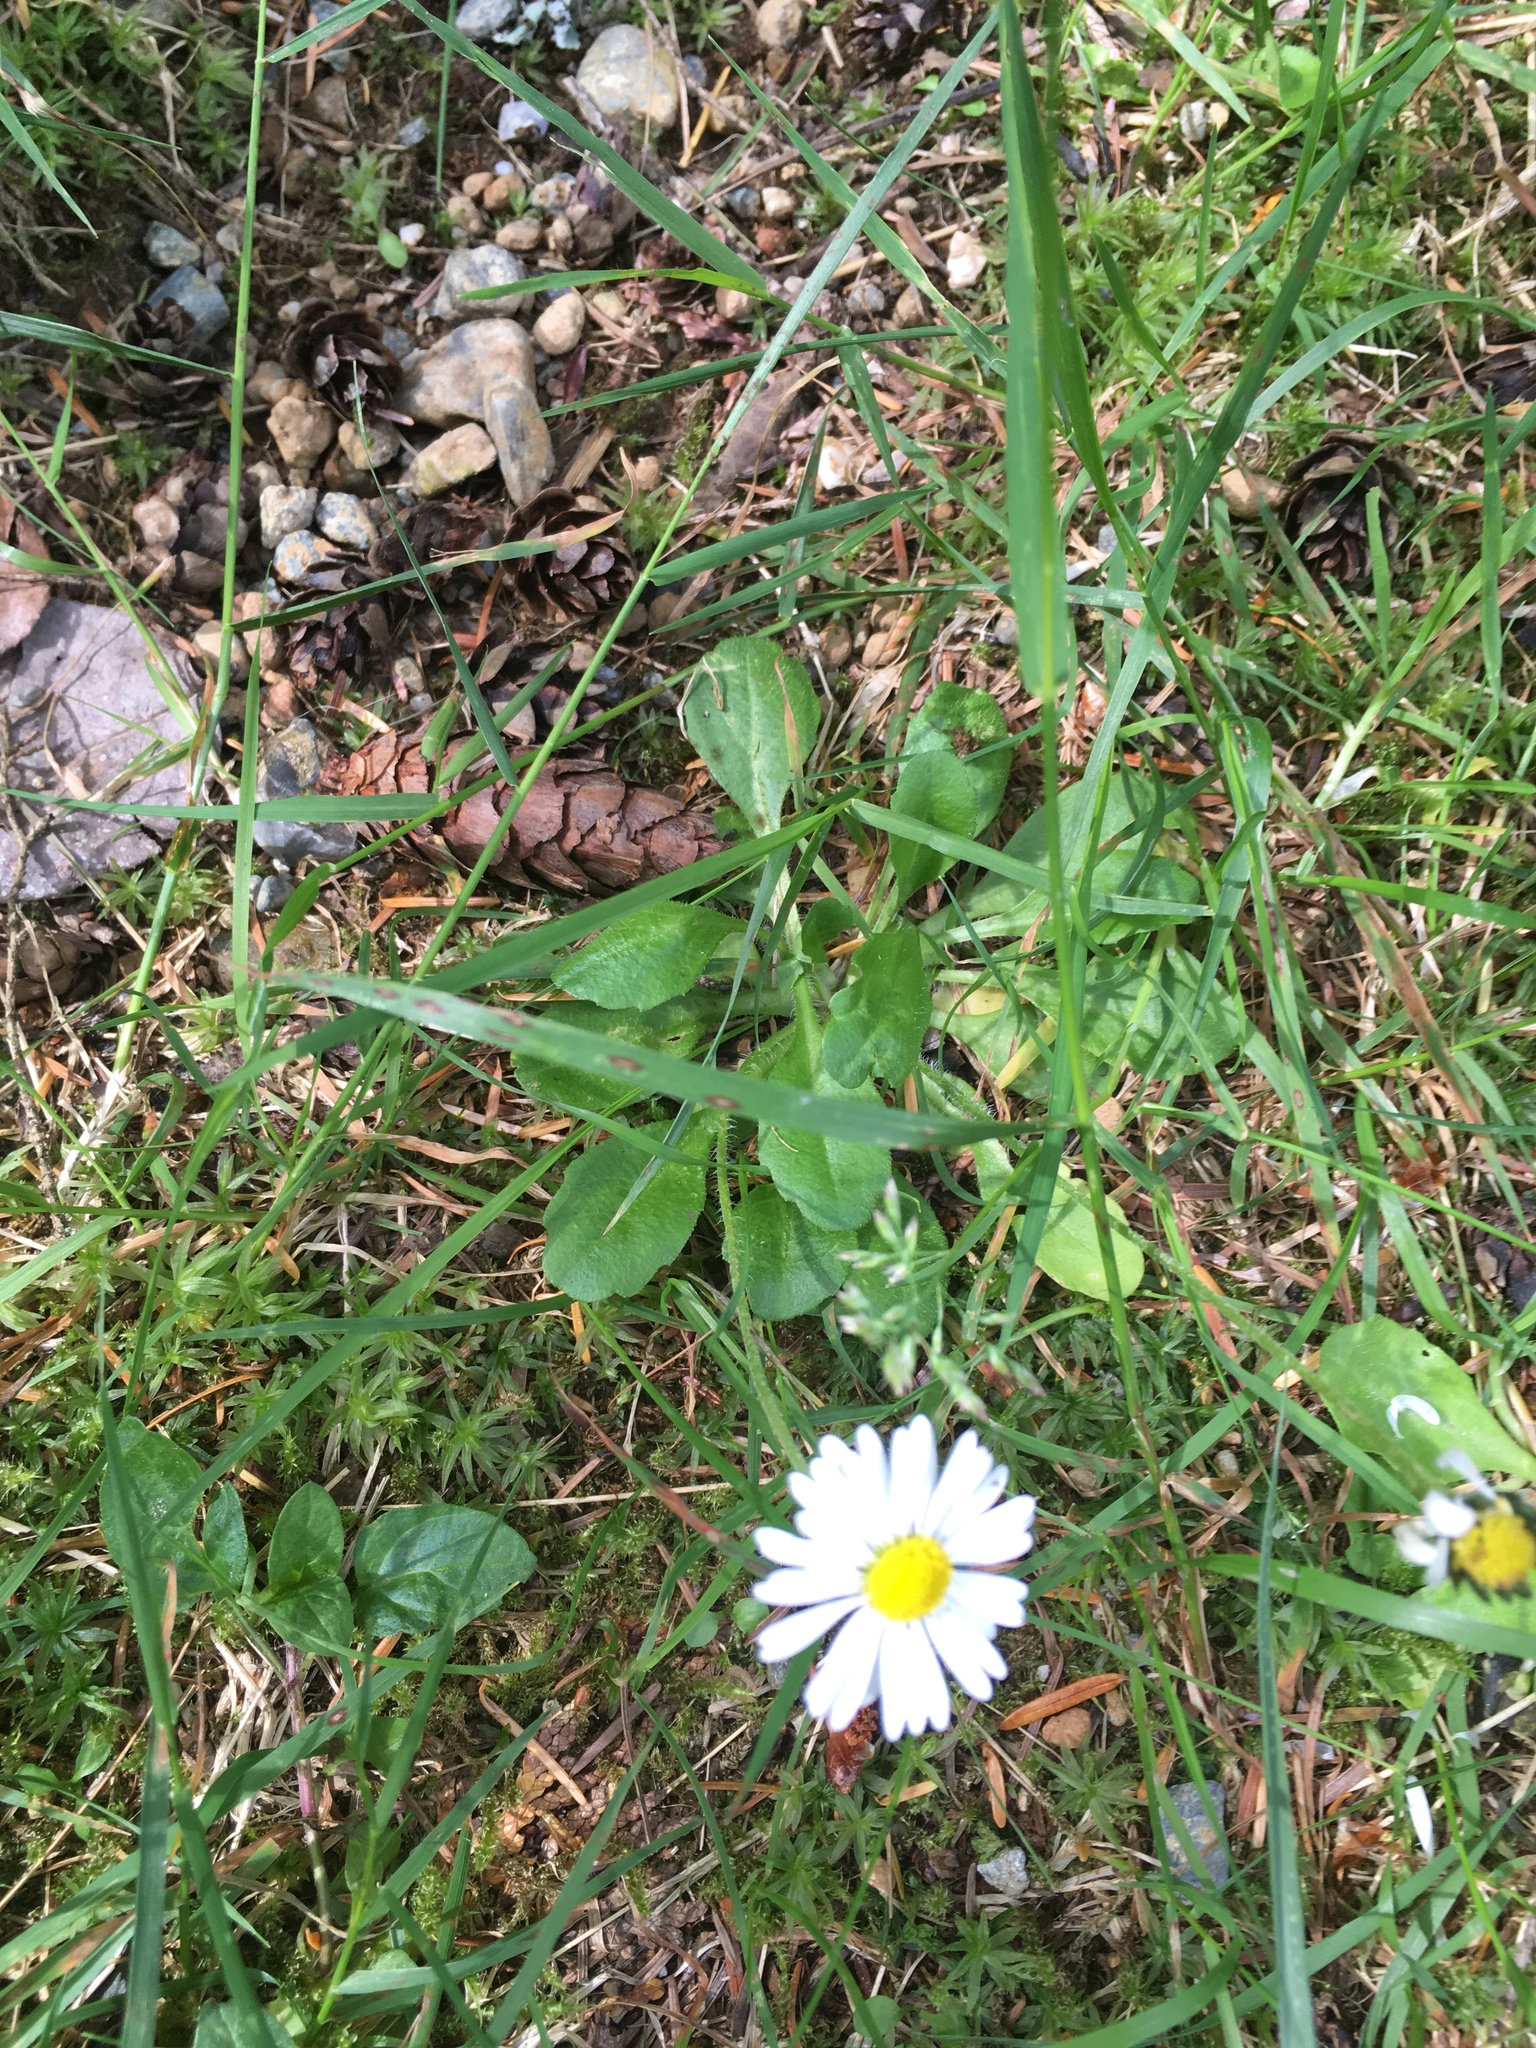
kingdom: Plantae
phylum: Tracheophyta
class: Magnoliopsida
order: Asterales
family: Asteraceae
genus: Bellis
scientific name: Bellis perennis
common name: Lawndaisy
